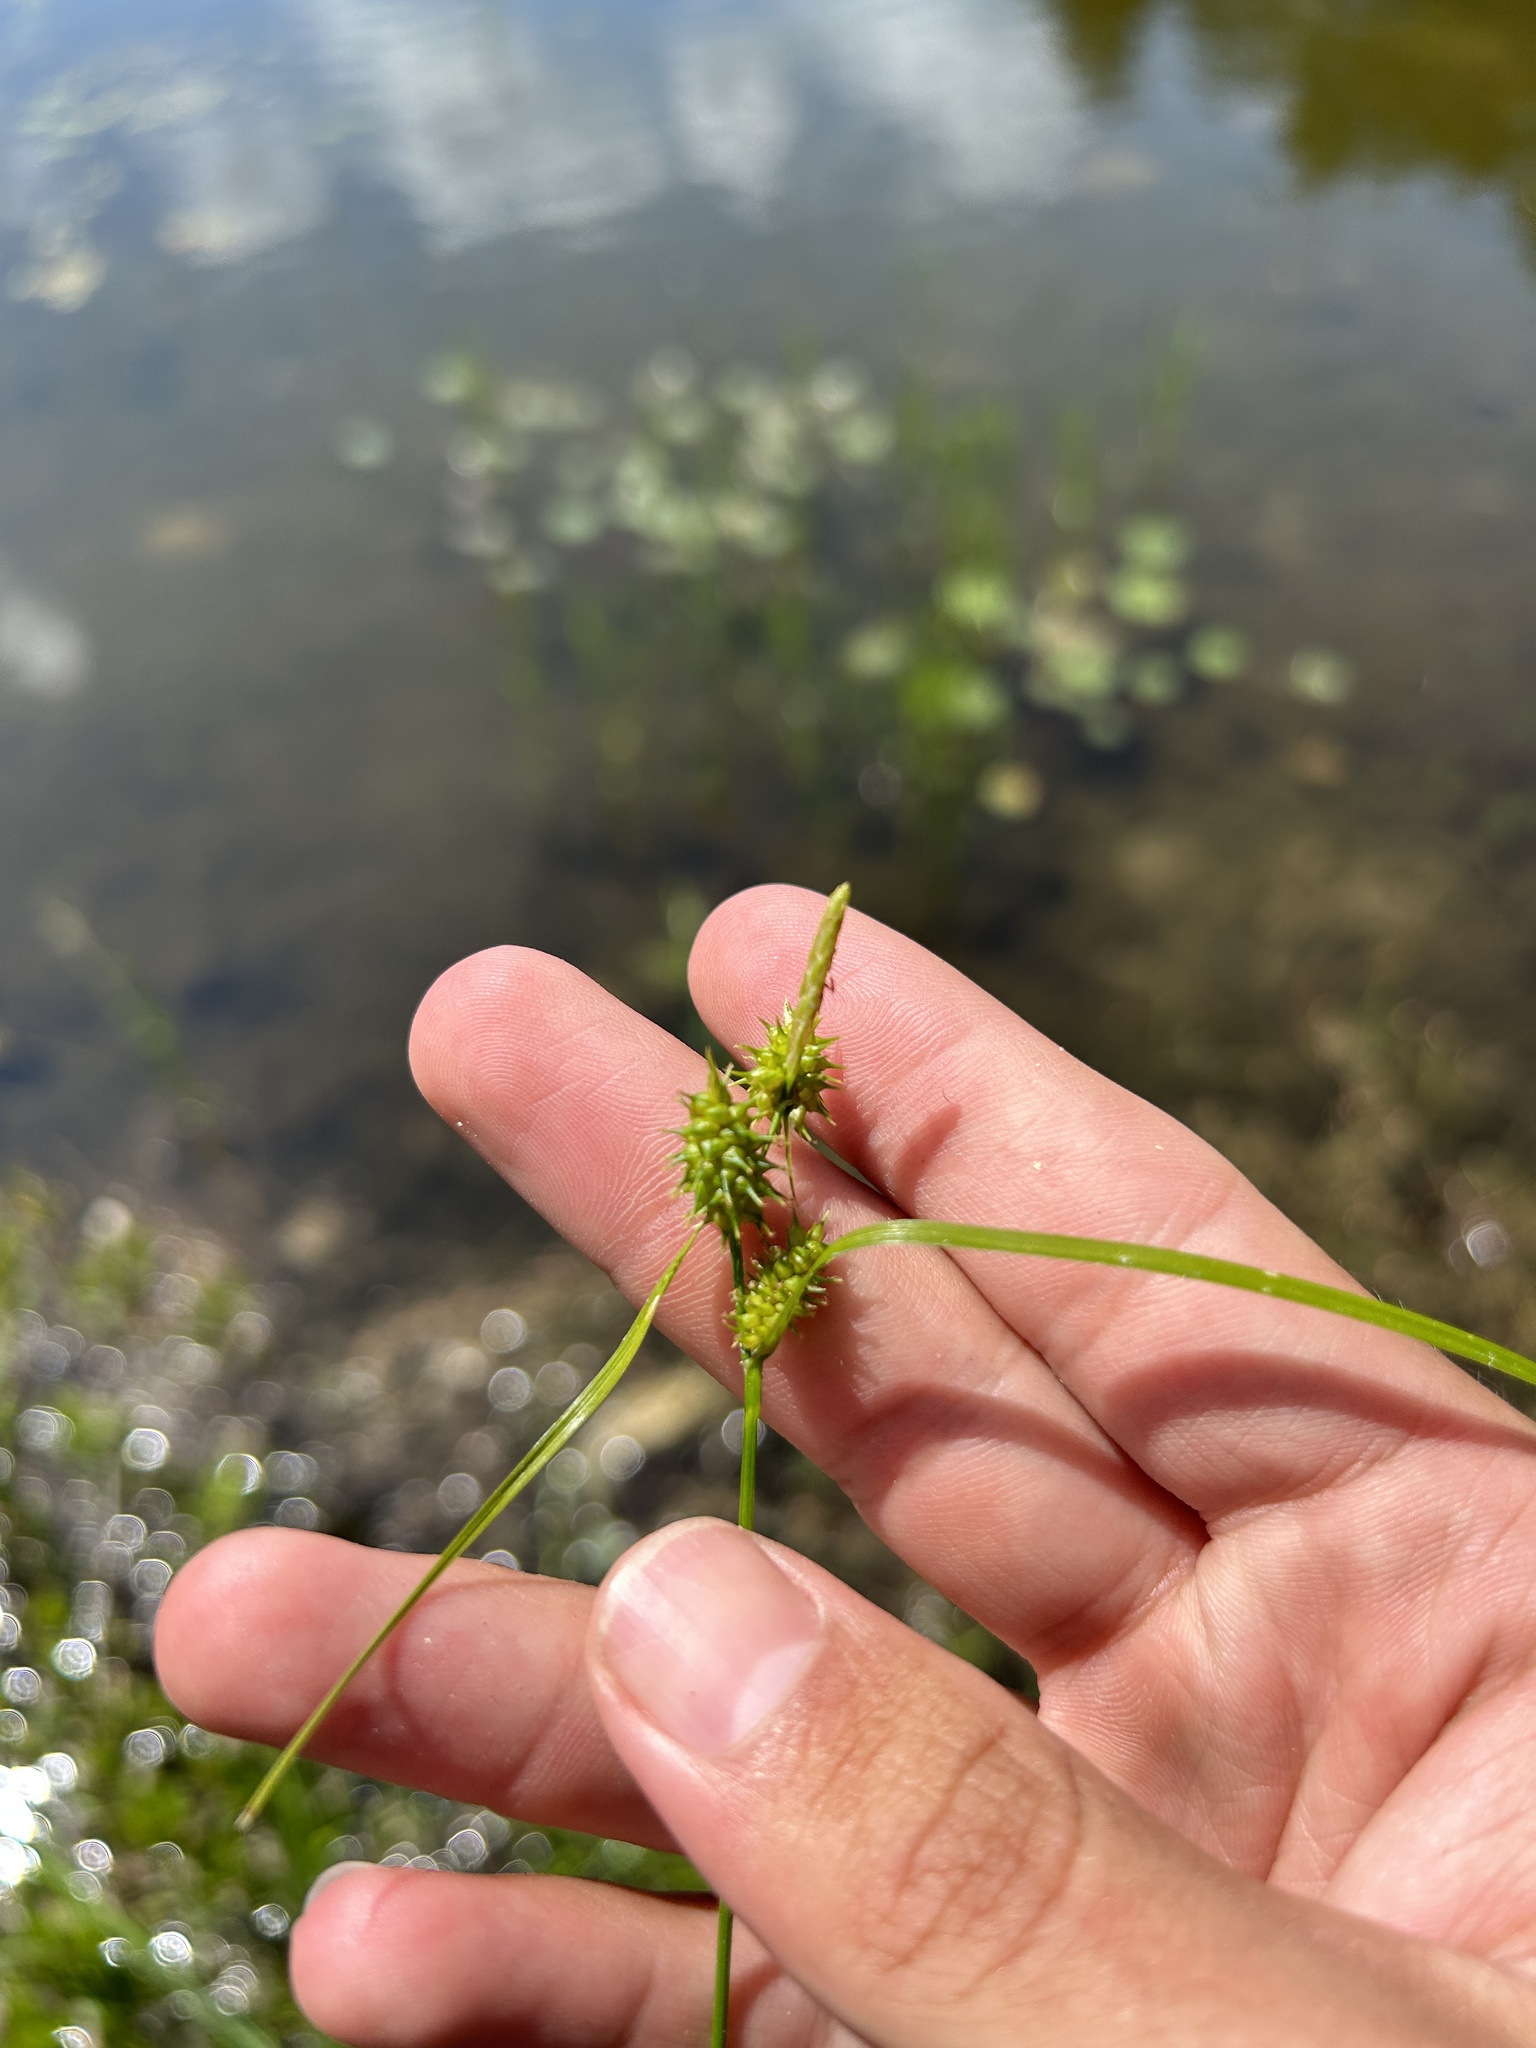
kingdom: Plantae
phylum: Tracheophyta
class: Liliopsida
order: Poales
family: Cyperaceae
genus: Carex
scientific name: Carex cryptolepis
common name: Northeastern sedge
